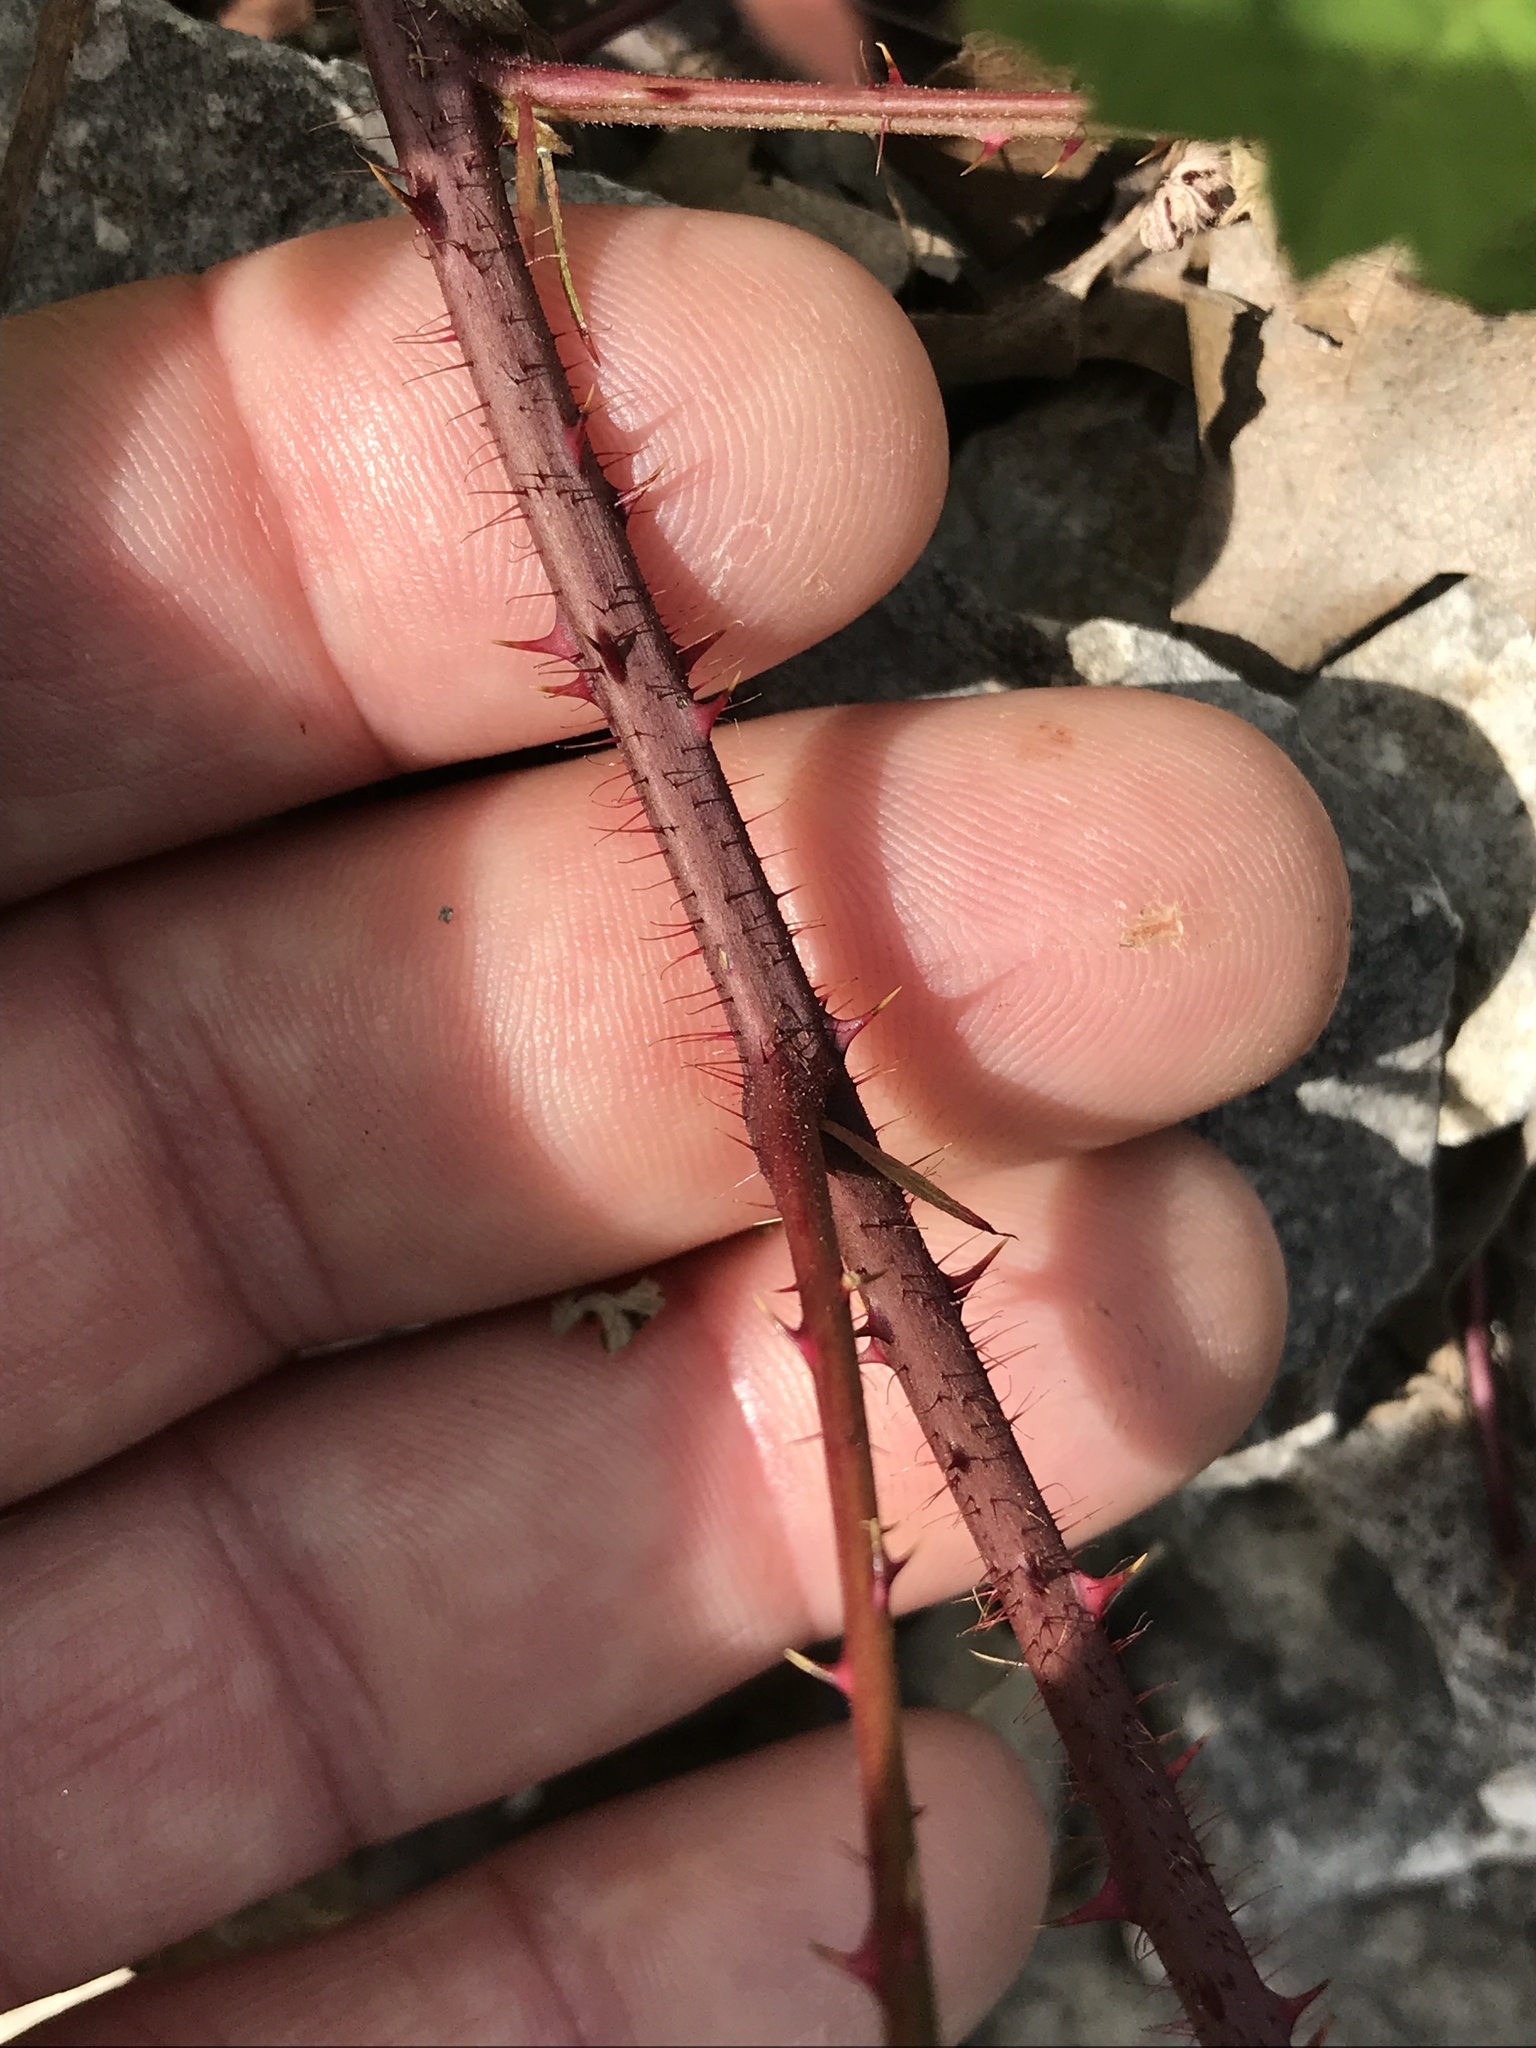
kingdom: Plantae
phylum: Tracheophyta
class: Magnoliopsida
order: Rosales
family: Rosaceae
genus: Rubus
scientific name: Rubus trivialis
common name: Southern dewberry
